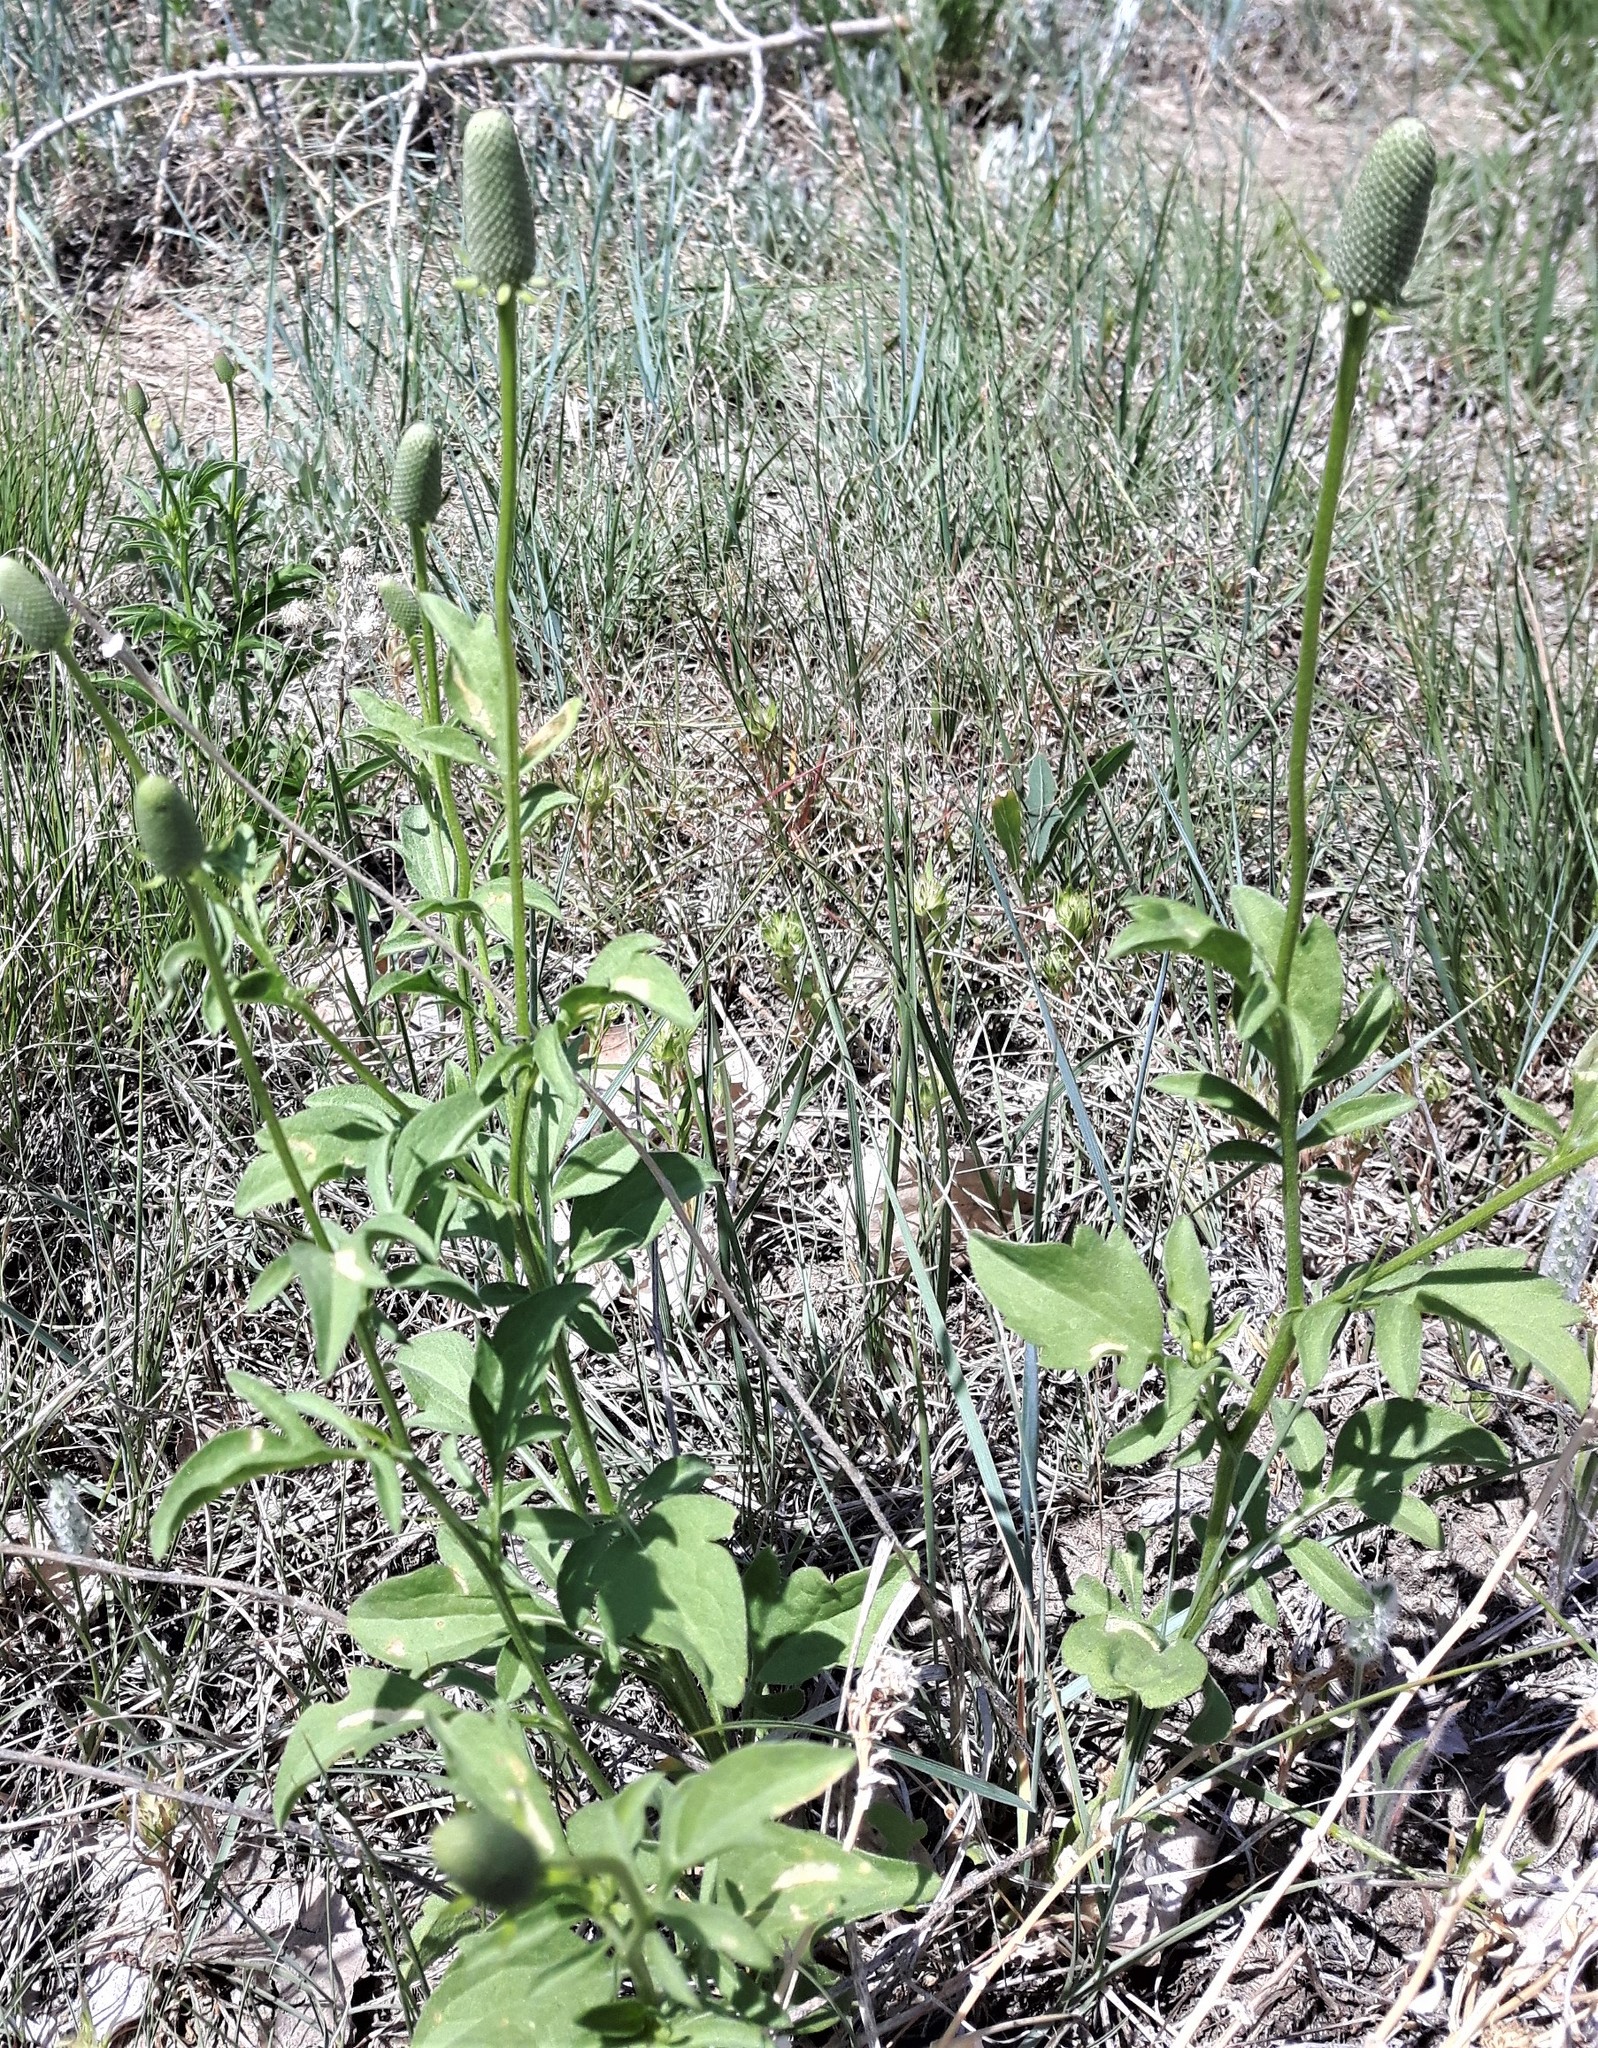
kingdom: Plantae
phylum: Tracheophyta
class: Magnoliopsida
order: Asterales
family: Asteraceae
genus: Ratibida
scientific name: Ratibida columnifera
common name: Prairie coneflower
